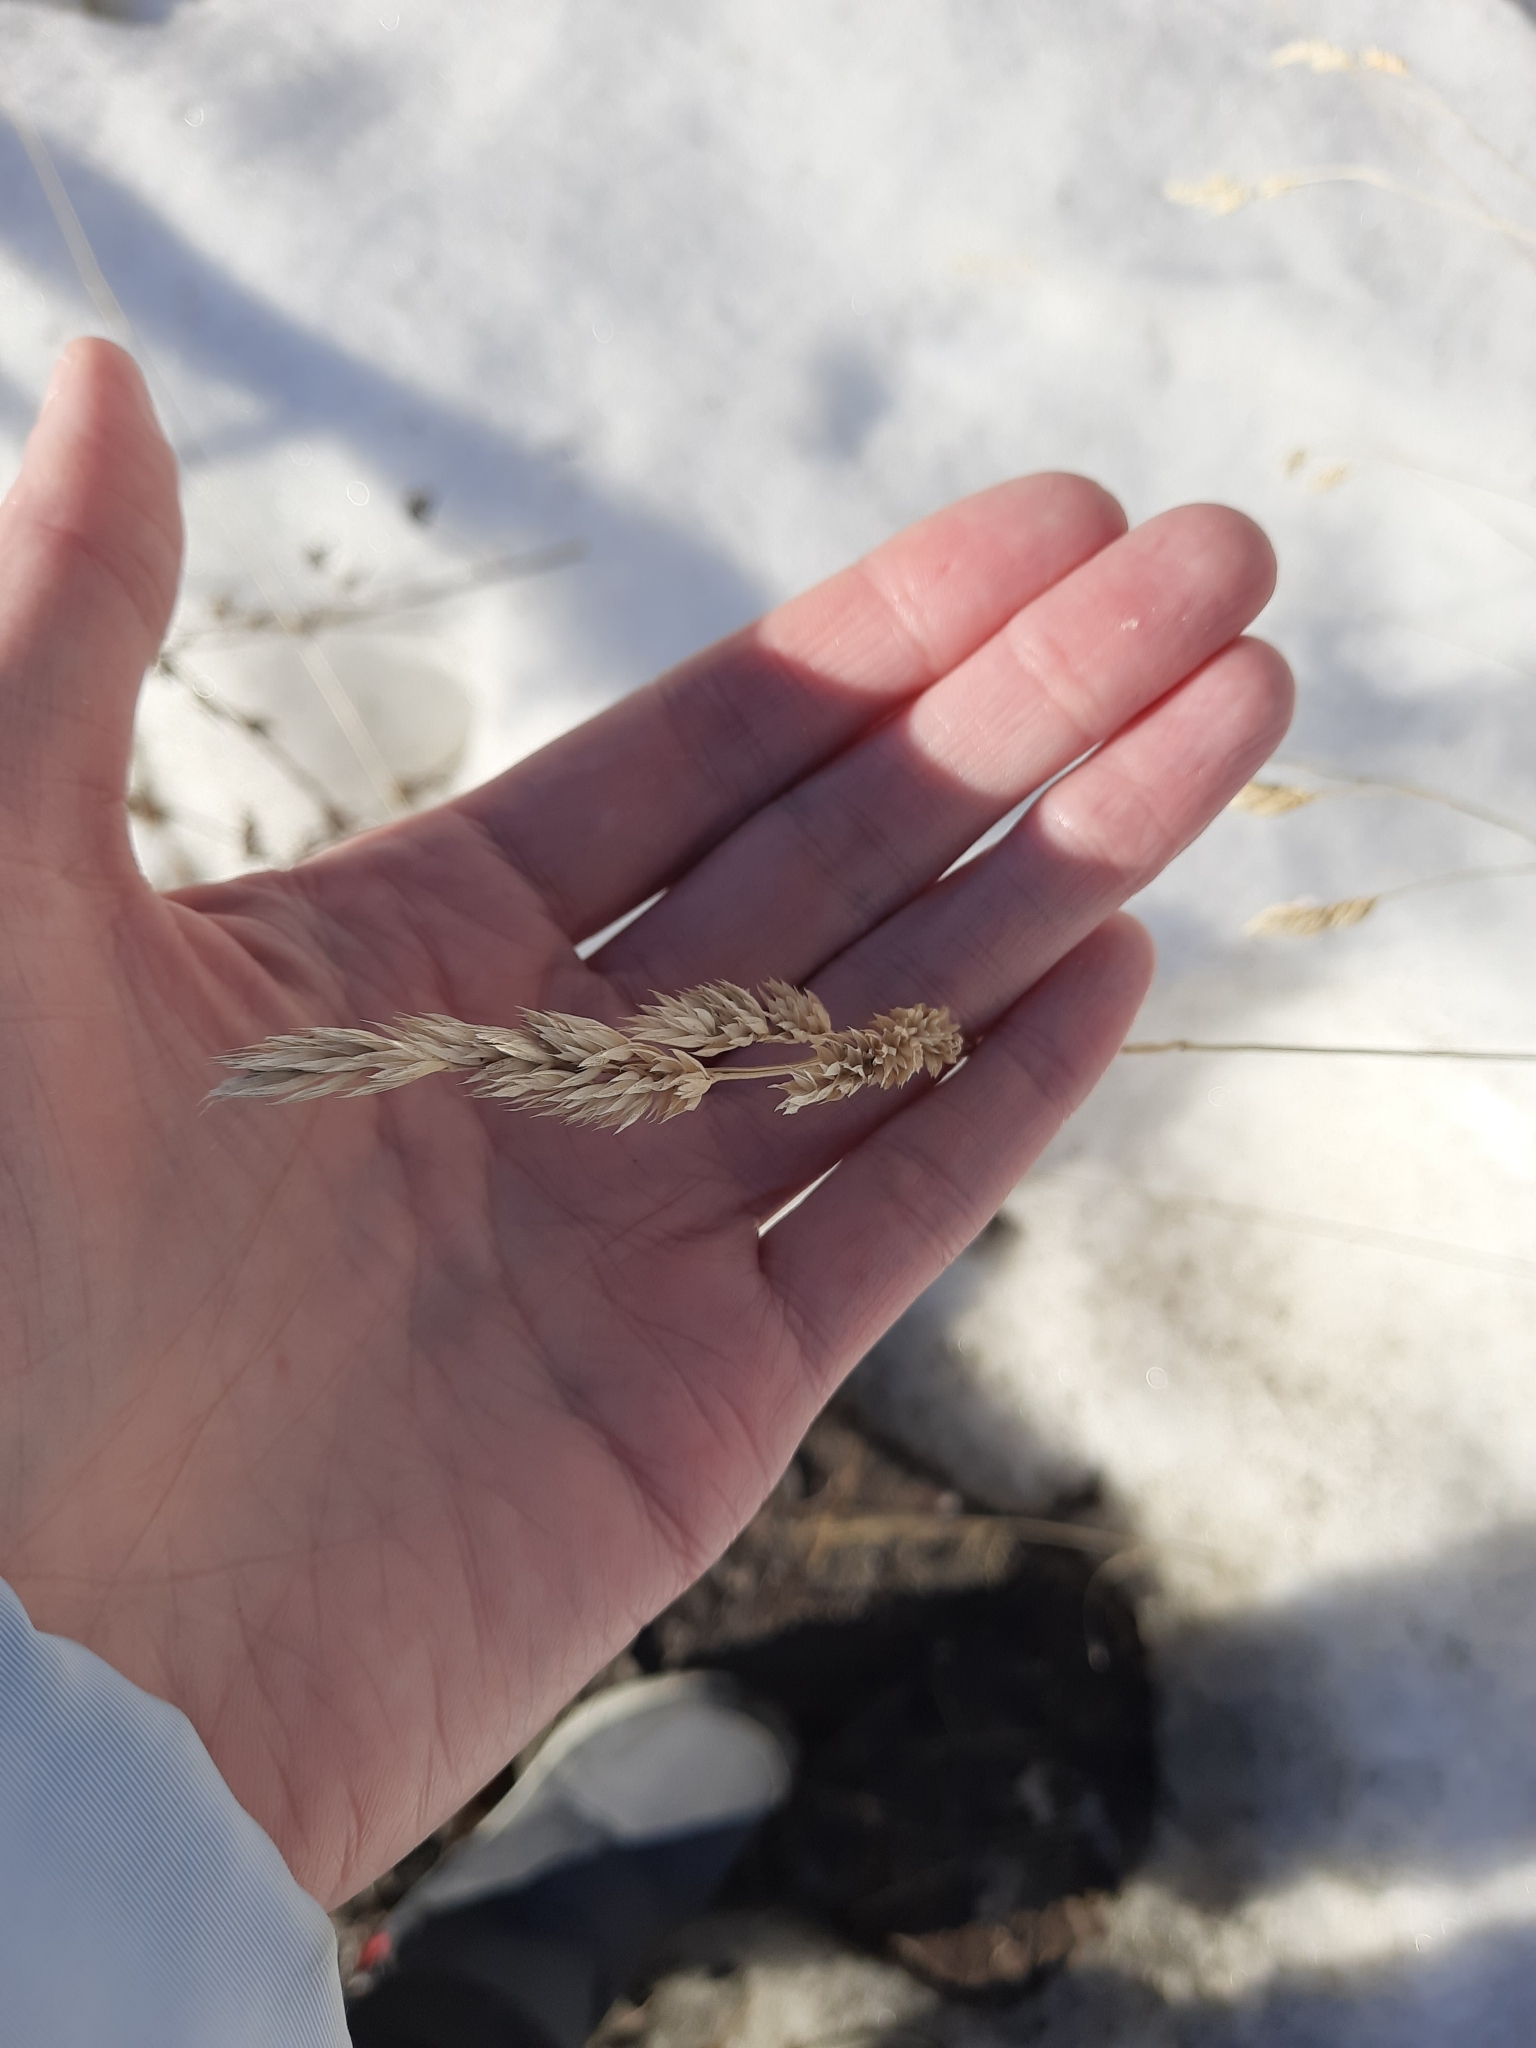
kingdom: Plantae
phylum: Tracheophyta
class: Liliopsida
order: Poales
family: Poaceae
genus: Dactylis
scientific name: Dactylis glomerata
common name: Orchardgrass
